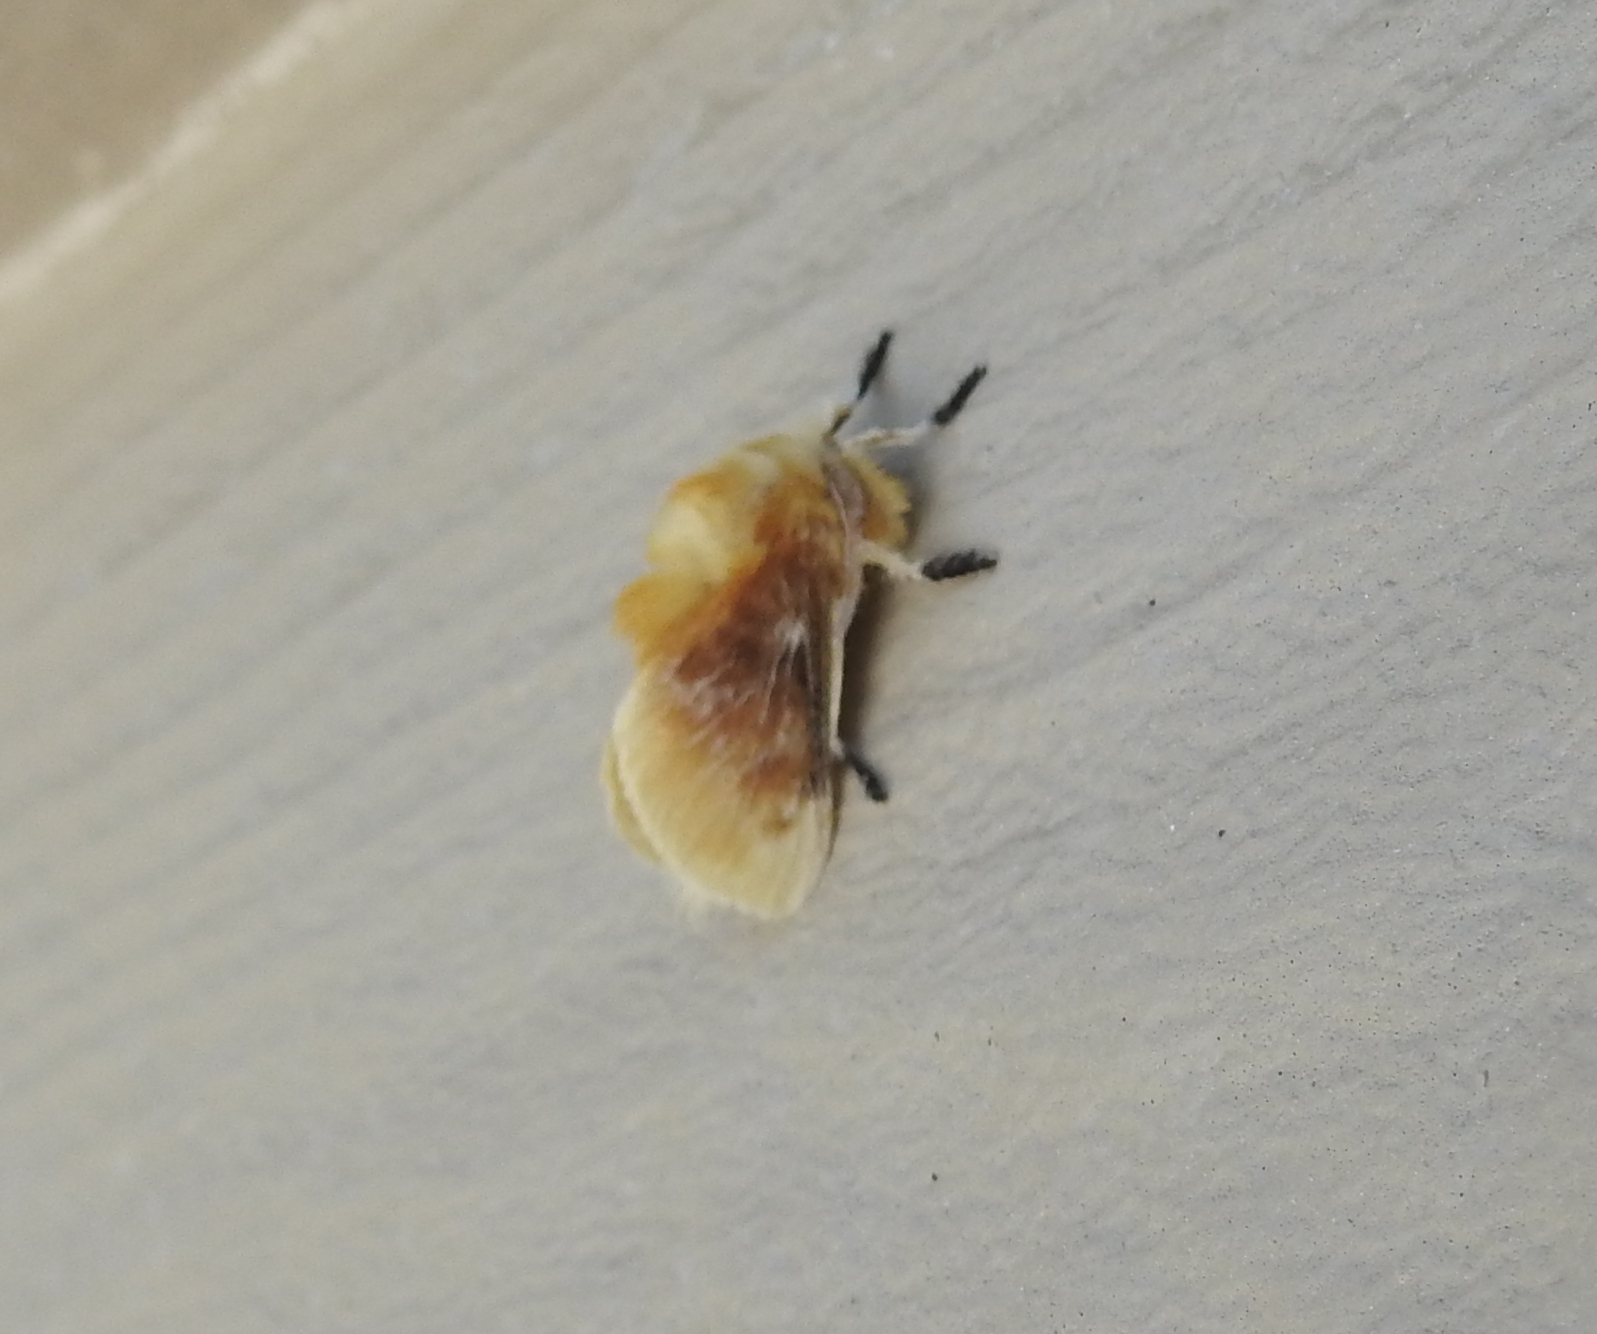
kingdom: Animalia
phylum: Arthropoda
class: Insecta
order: Lepidoptera
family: Megalopygidae
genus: Megalopyge
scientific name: Megalopyge opercularis
